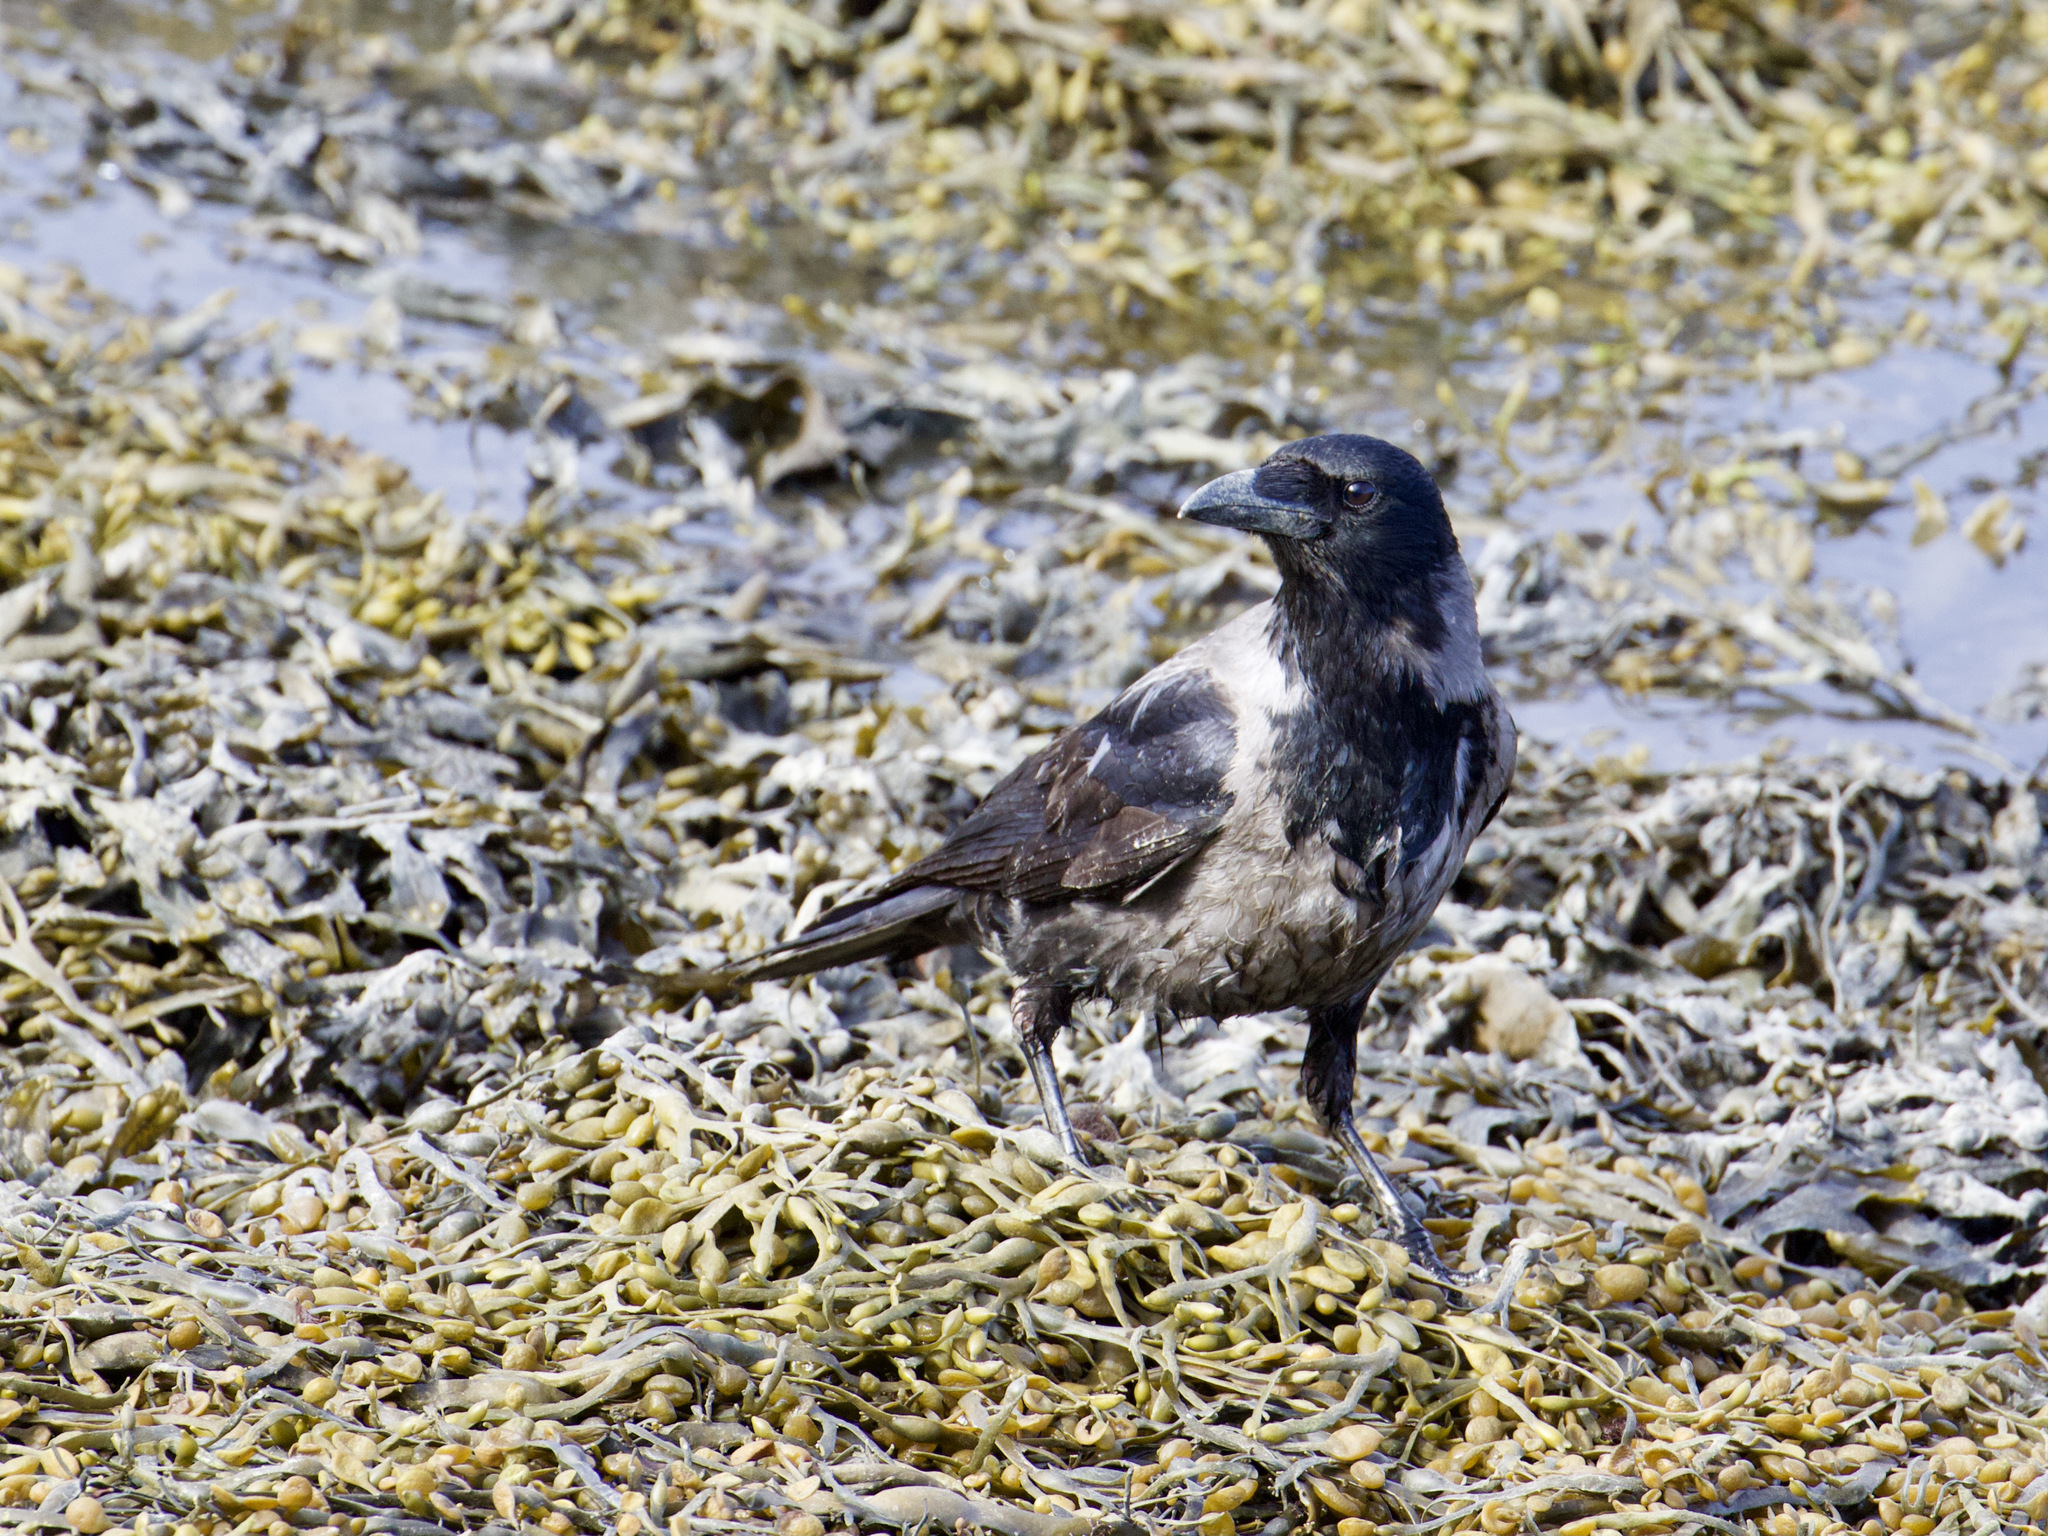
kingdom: Animalia
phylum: Chordata
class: Aves
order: Passeriformes
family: Corvidae
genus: Corvus
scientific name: Corvus
